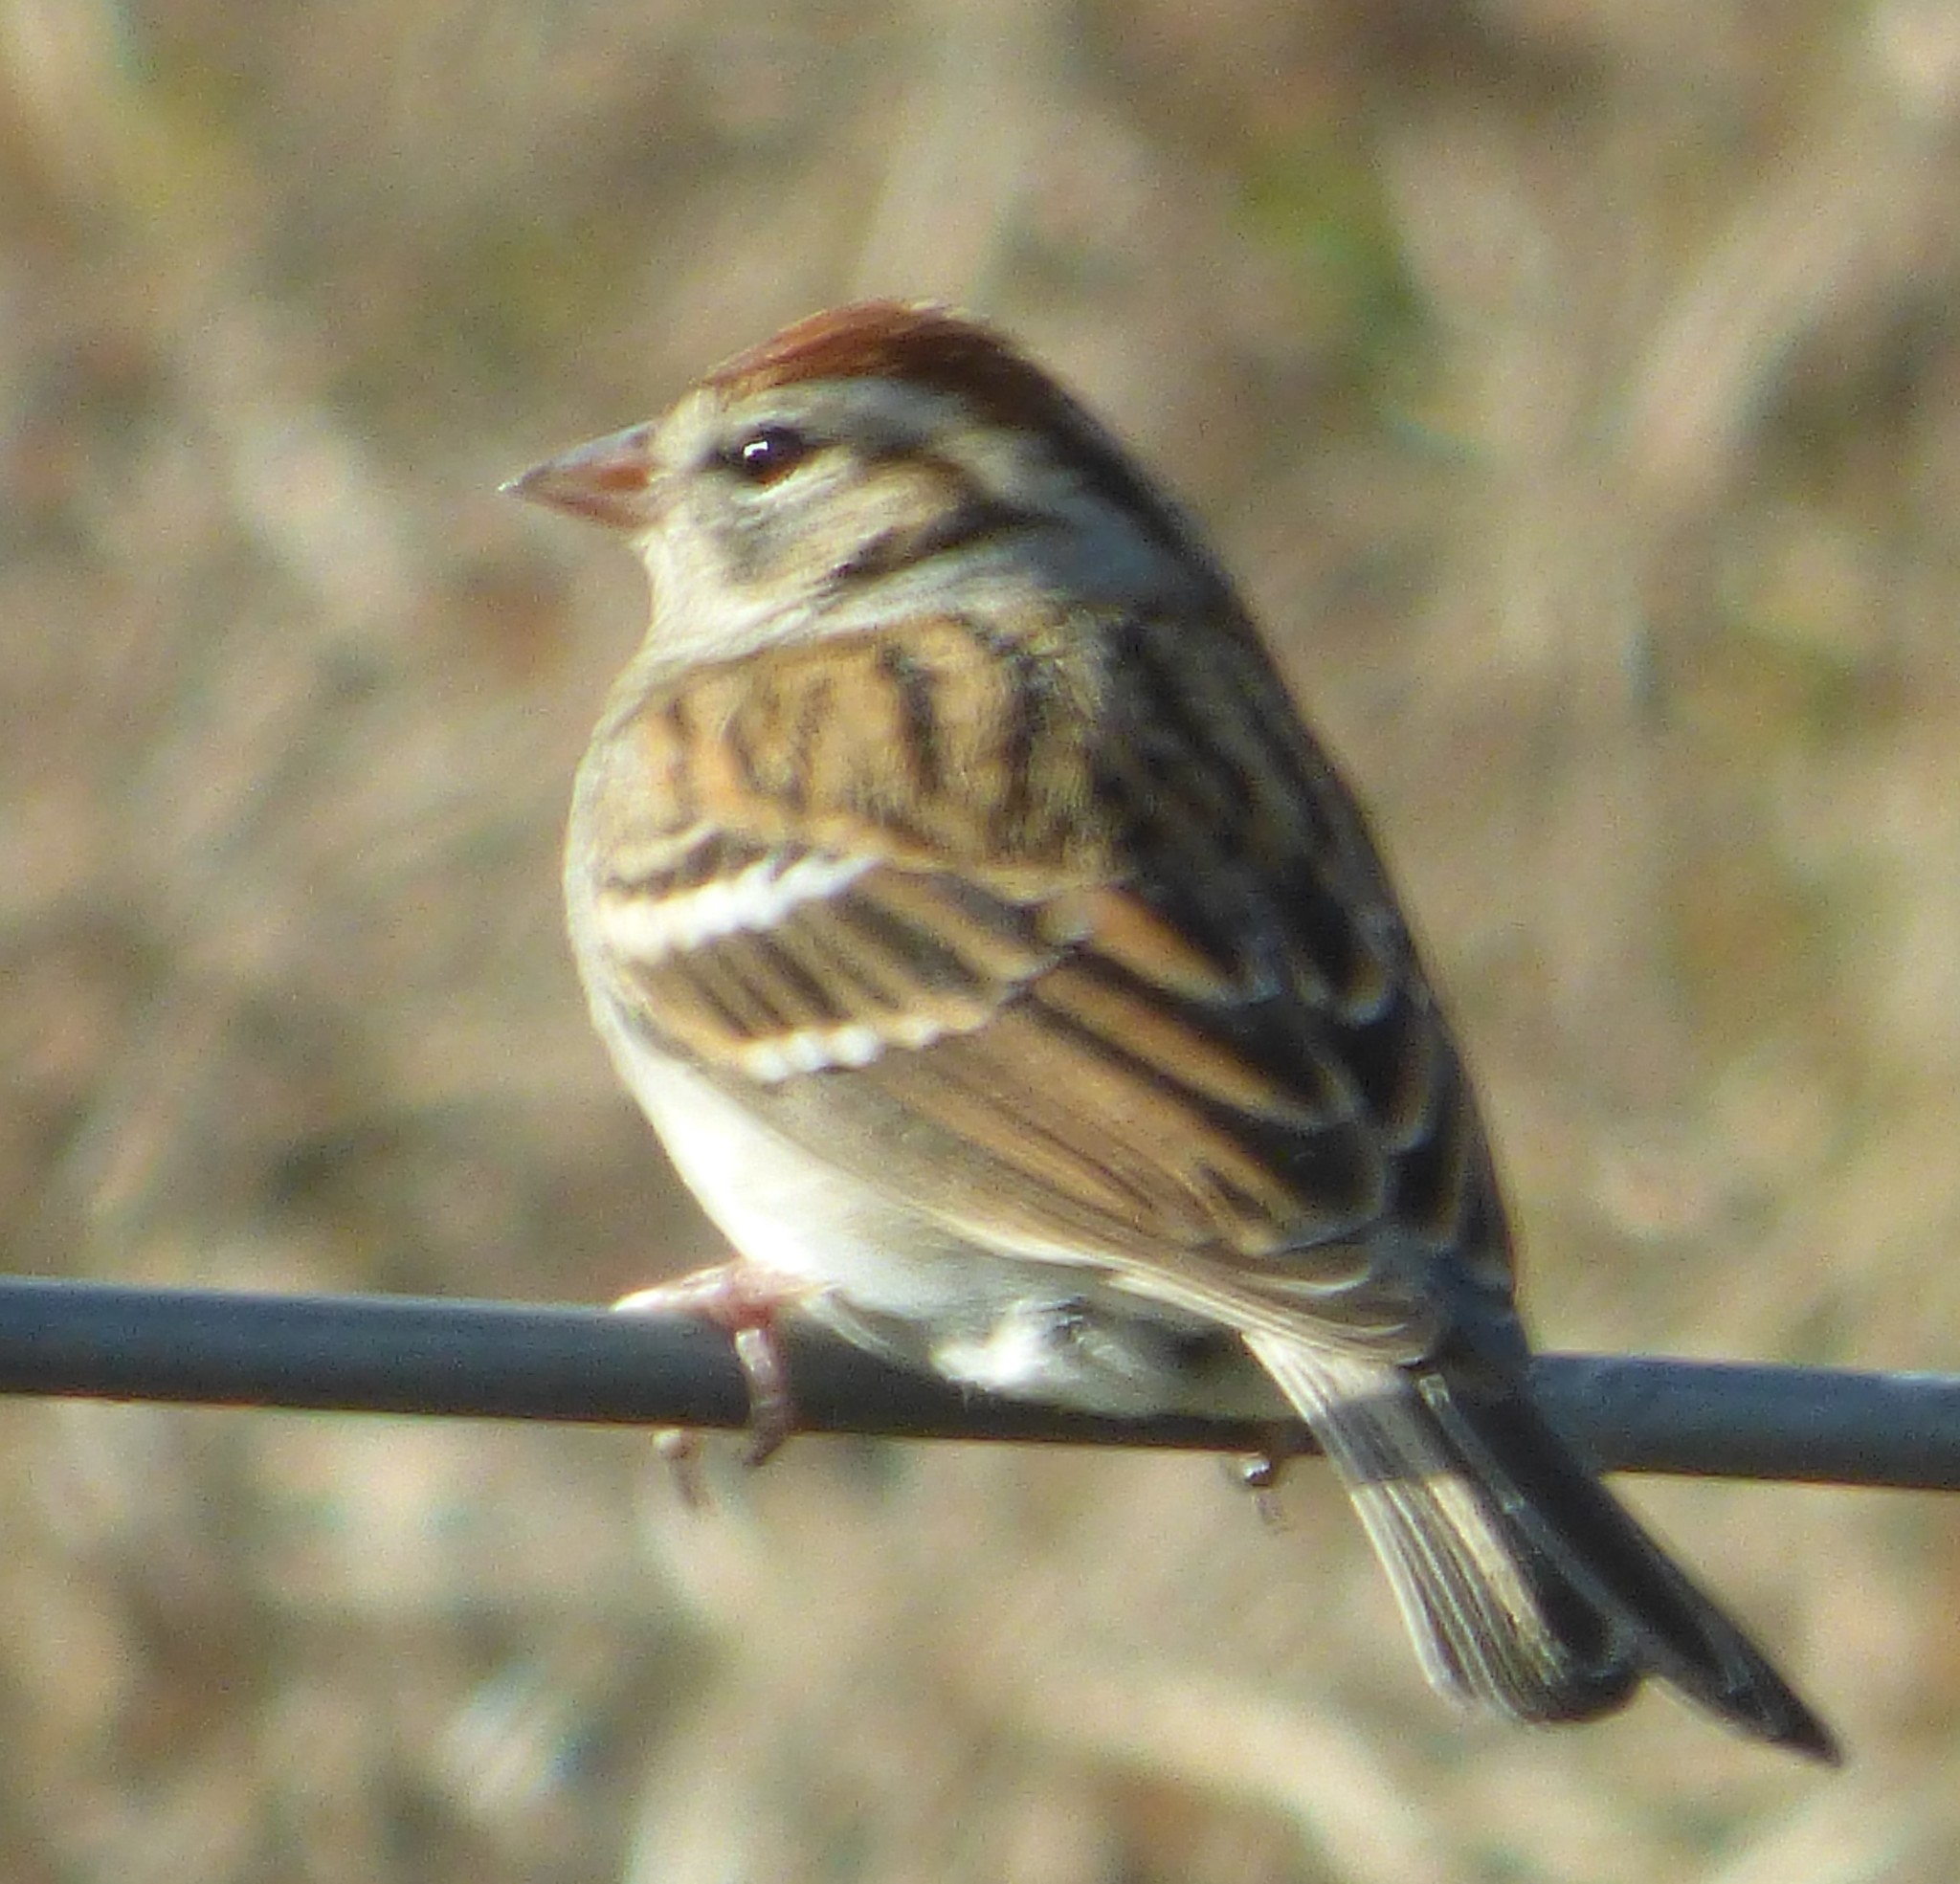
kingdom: Animalia
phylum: Chordata
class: Aves
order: Passeriformes
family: Passerellidae
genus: Spizella
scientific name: Spizella passerina
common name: Chipping sparrow
